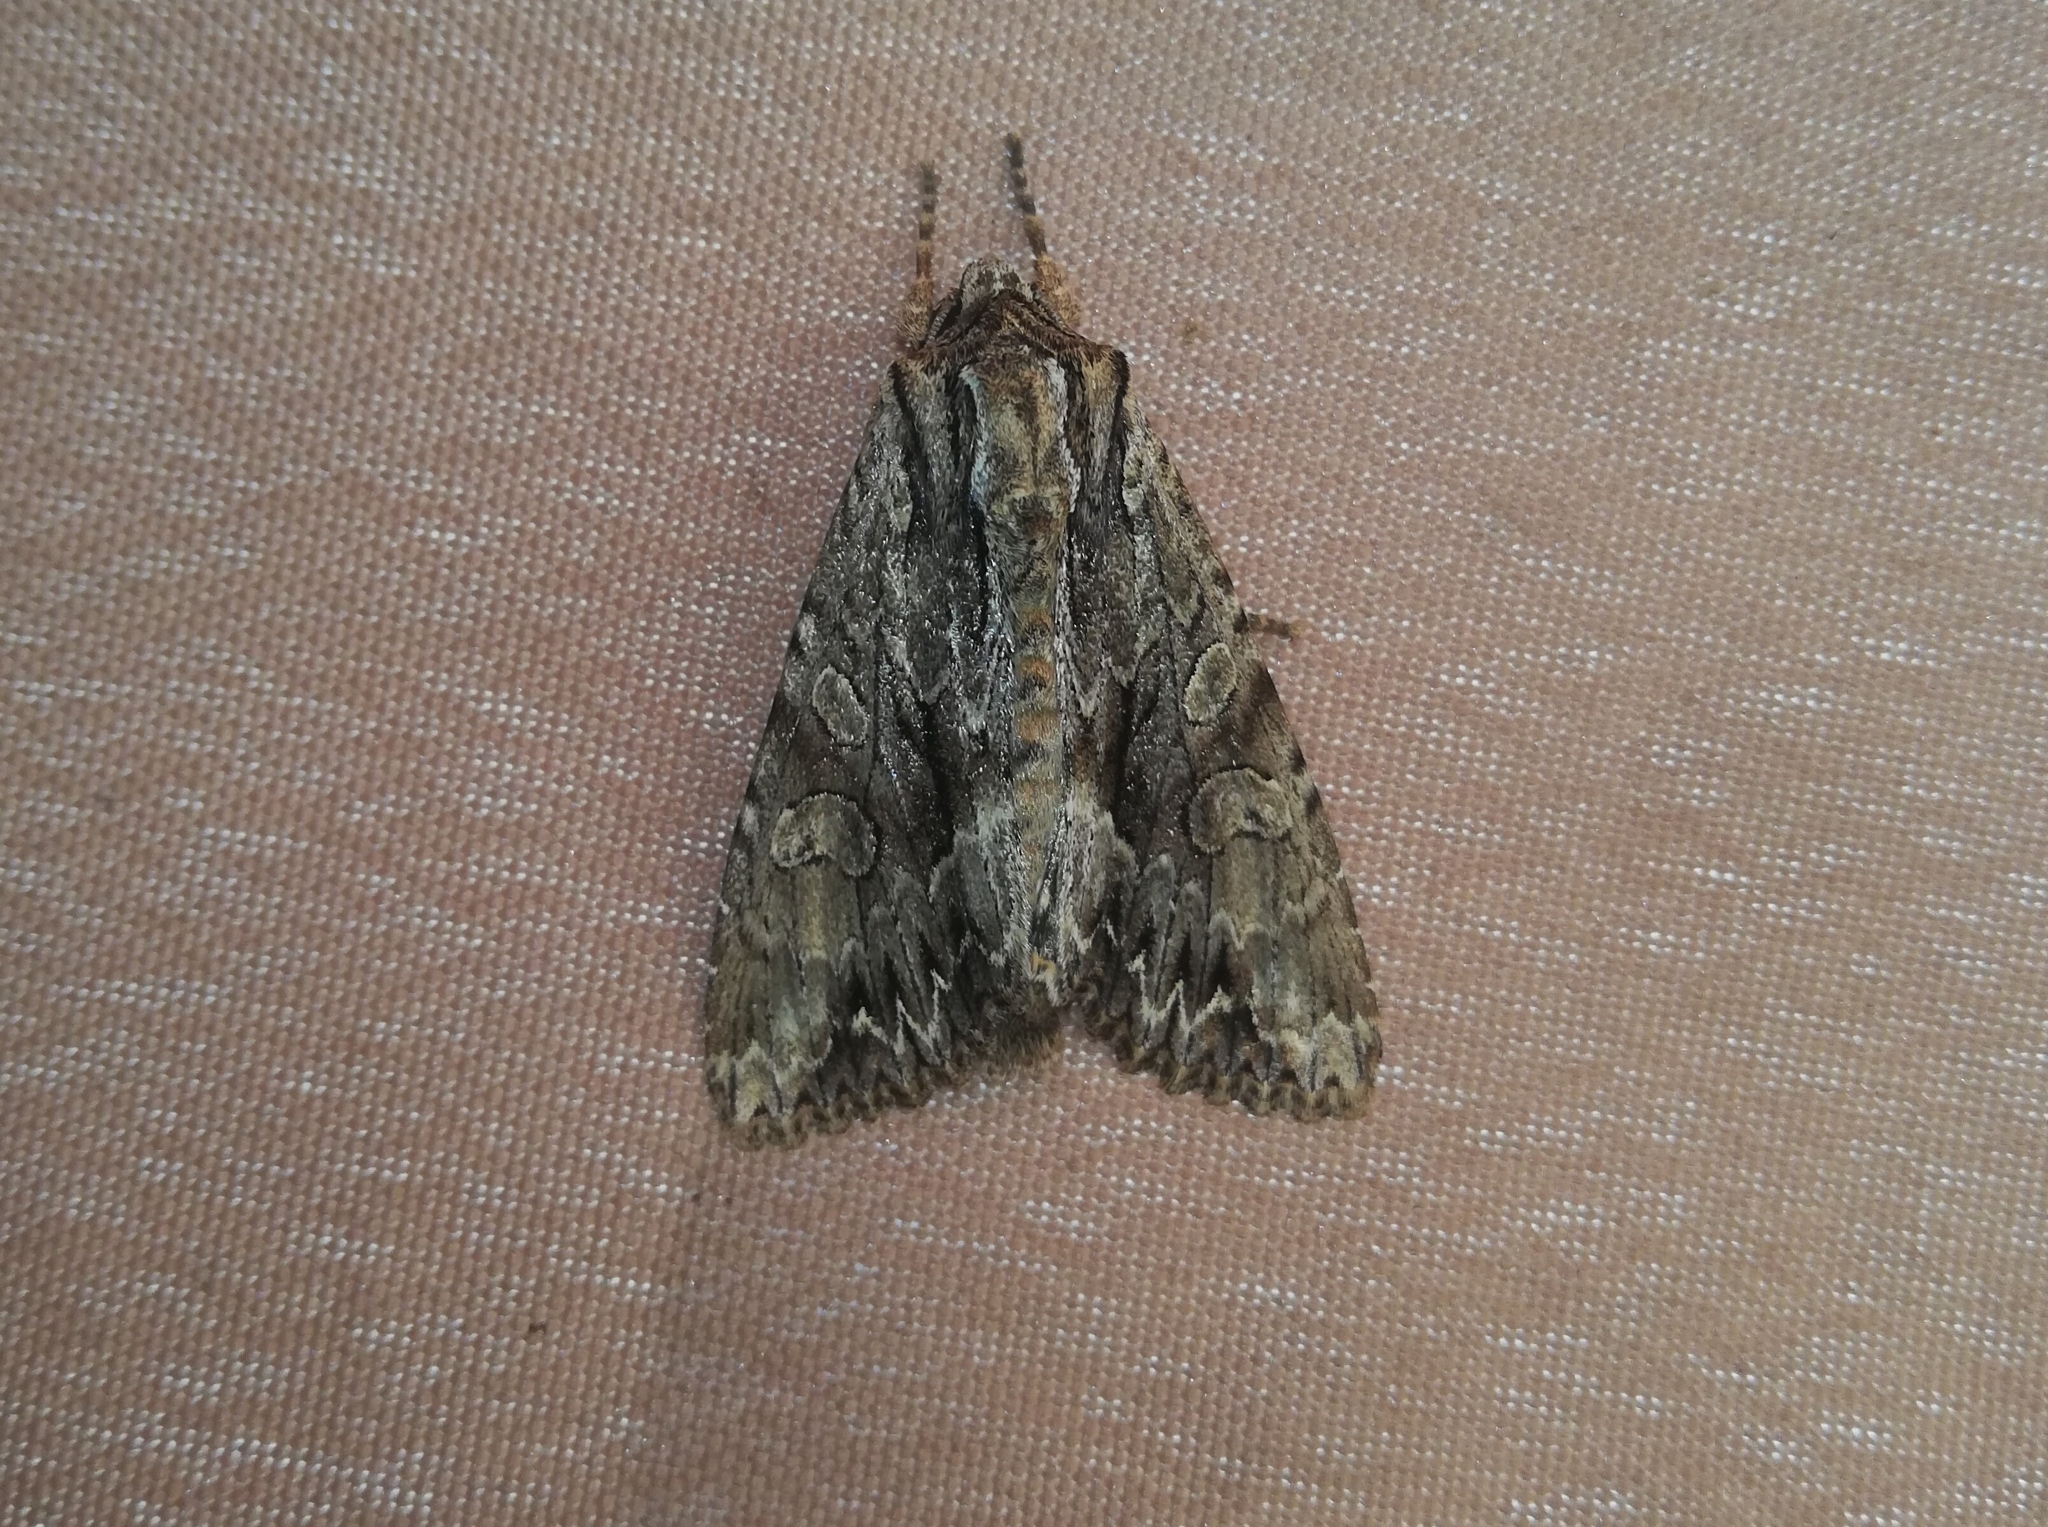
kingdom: Animalia
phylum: Arthropoda
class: Insecta
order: Lepidoptera
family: Noctuidae
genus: Apamea
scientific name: Apamea monoglypha
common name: Dark arches
